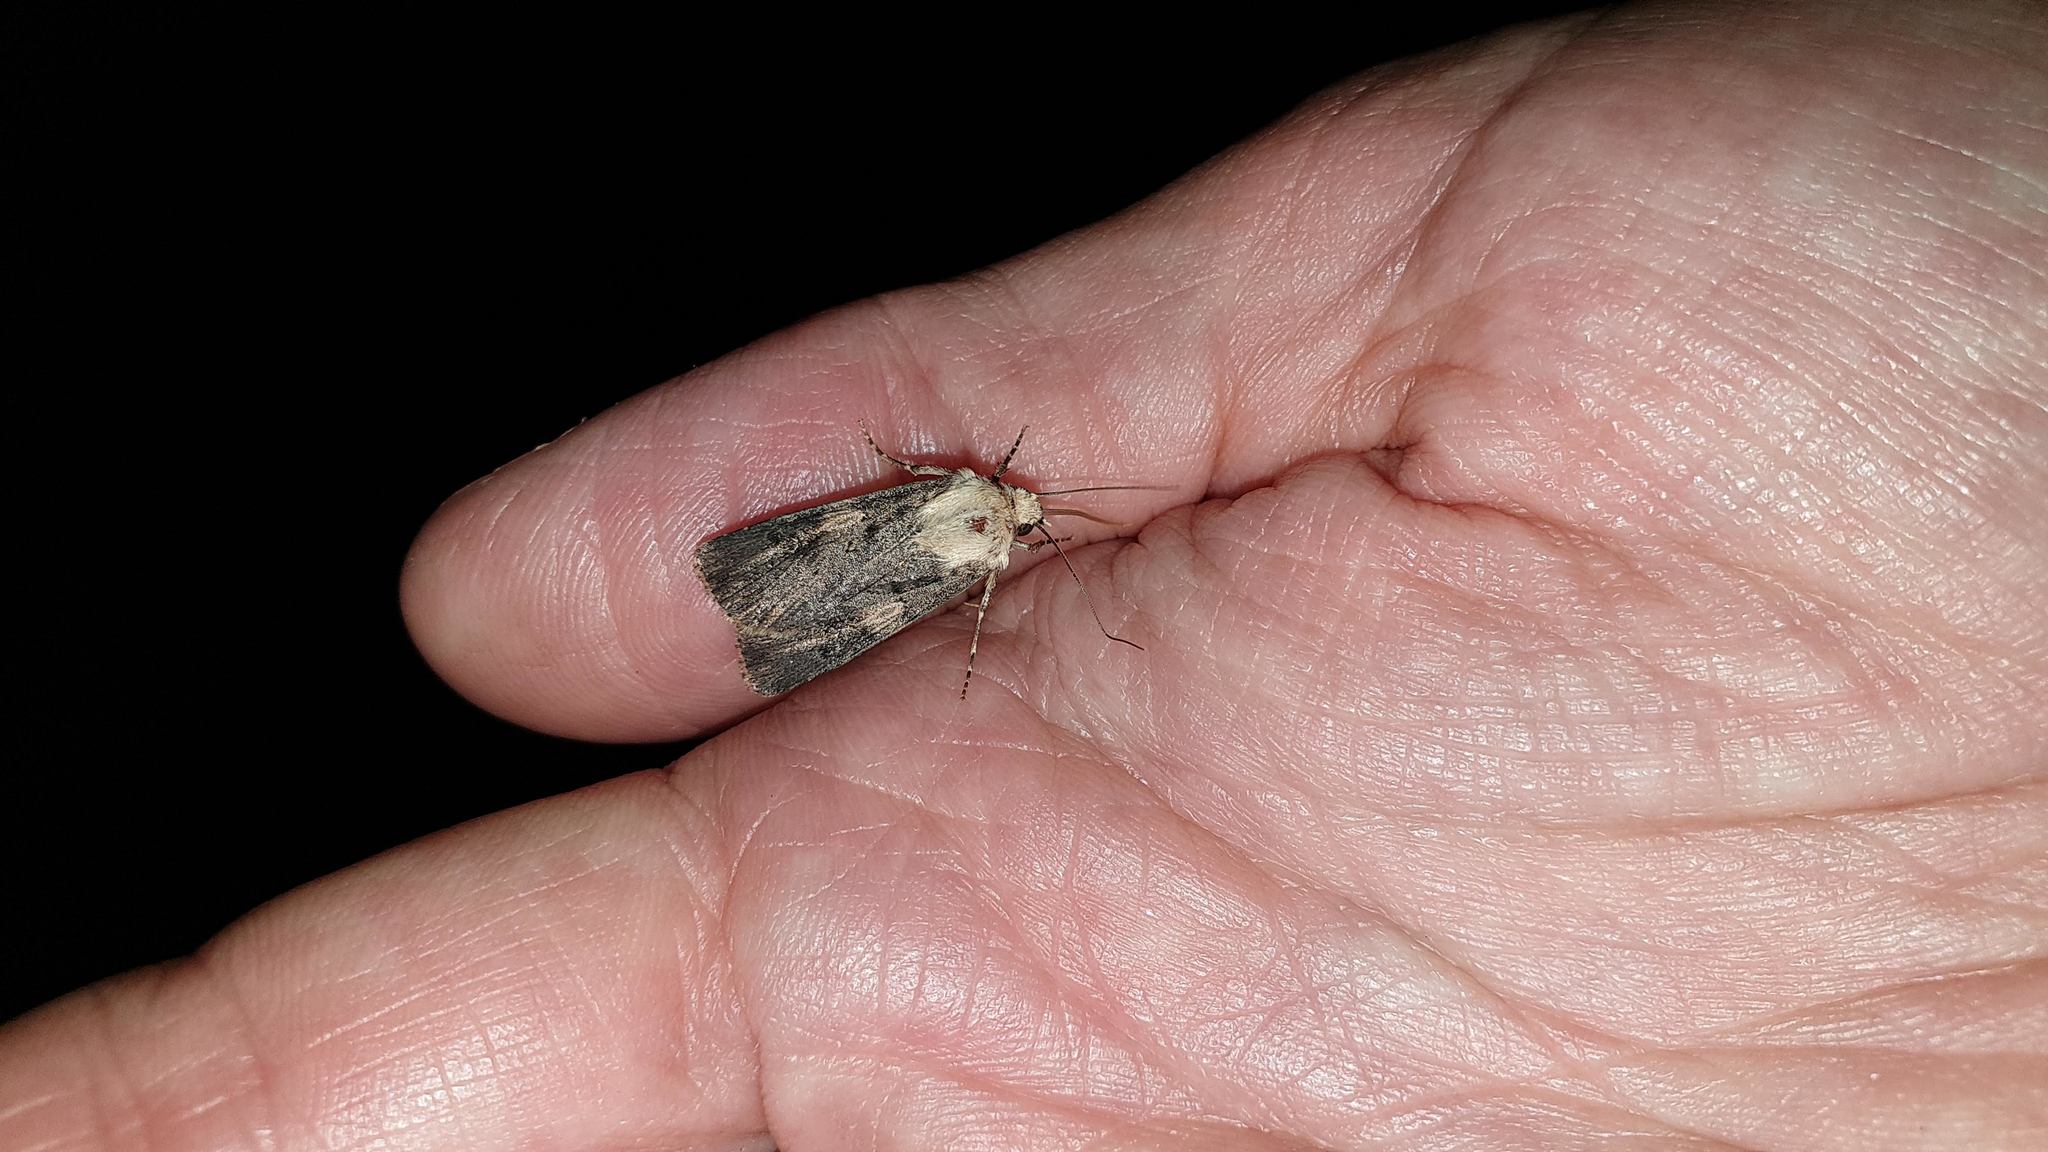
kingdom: Animalia
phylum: Arthropoda
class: Insecta
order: Lepidoptera
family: Noctuidae
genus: Agrotis
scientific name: Agrotis puta
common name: Shuttle-shaped dart
